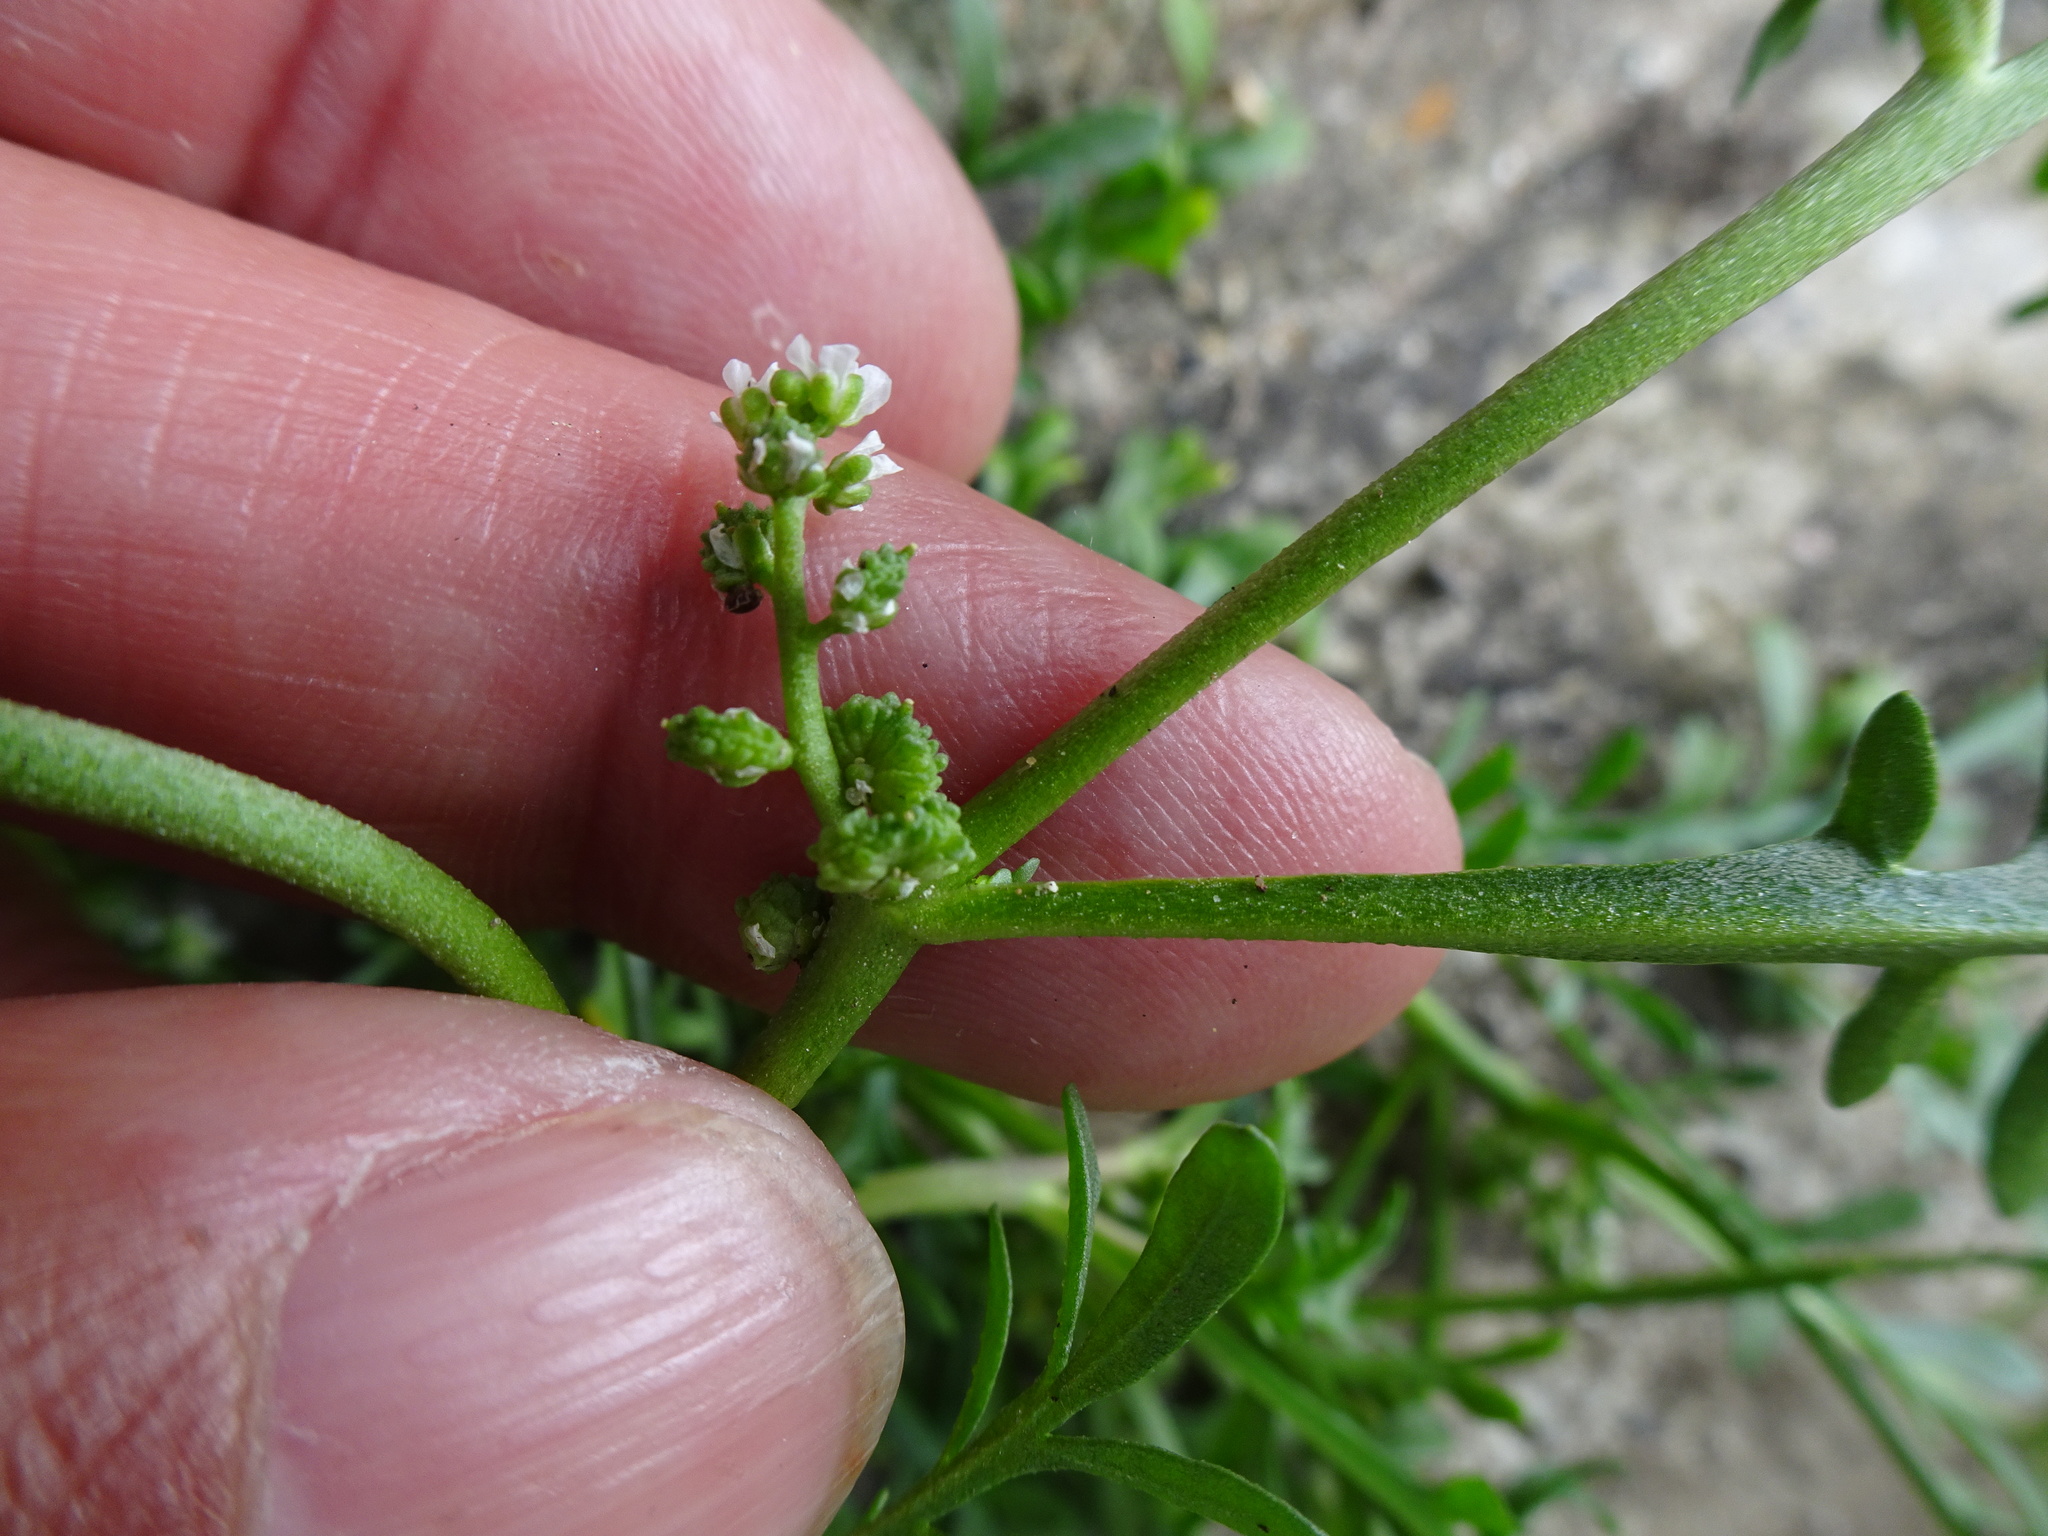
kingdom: Plantae
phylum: Tracheophyta
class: Magnoliopsida
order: Brassicales
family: Brassicaceae
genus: Lepidium
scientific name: Lepidium coronopus
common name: Greater swinecress
